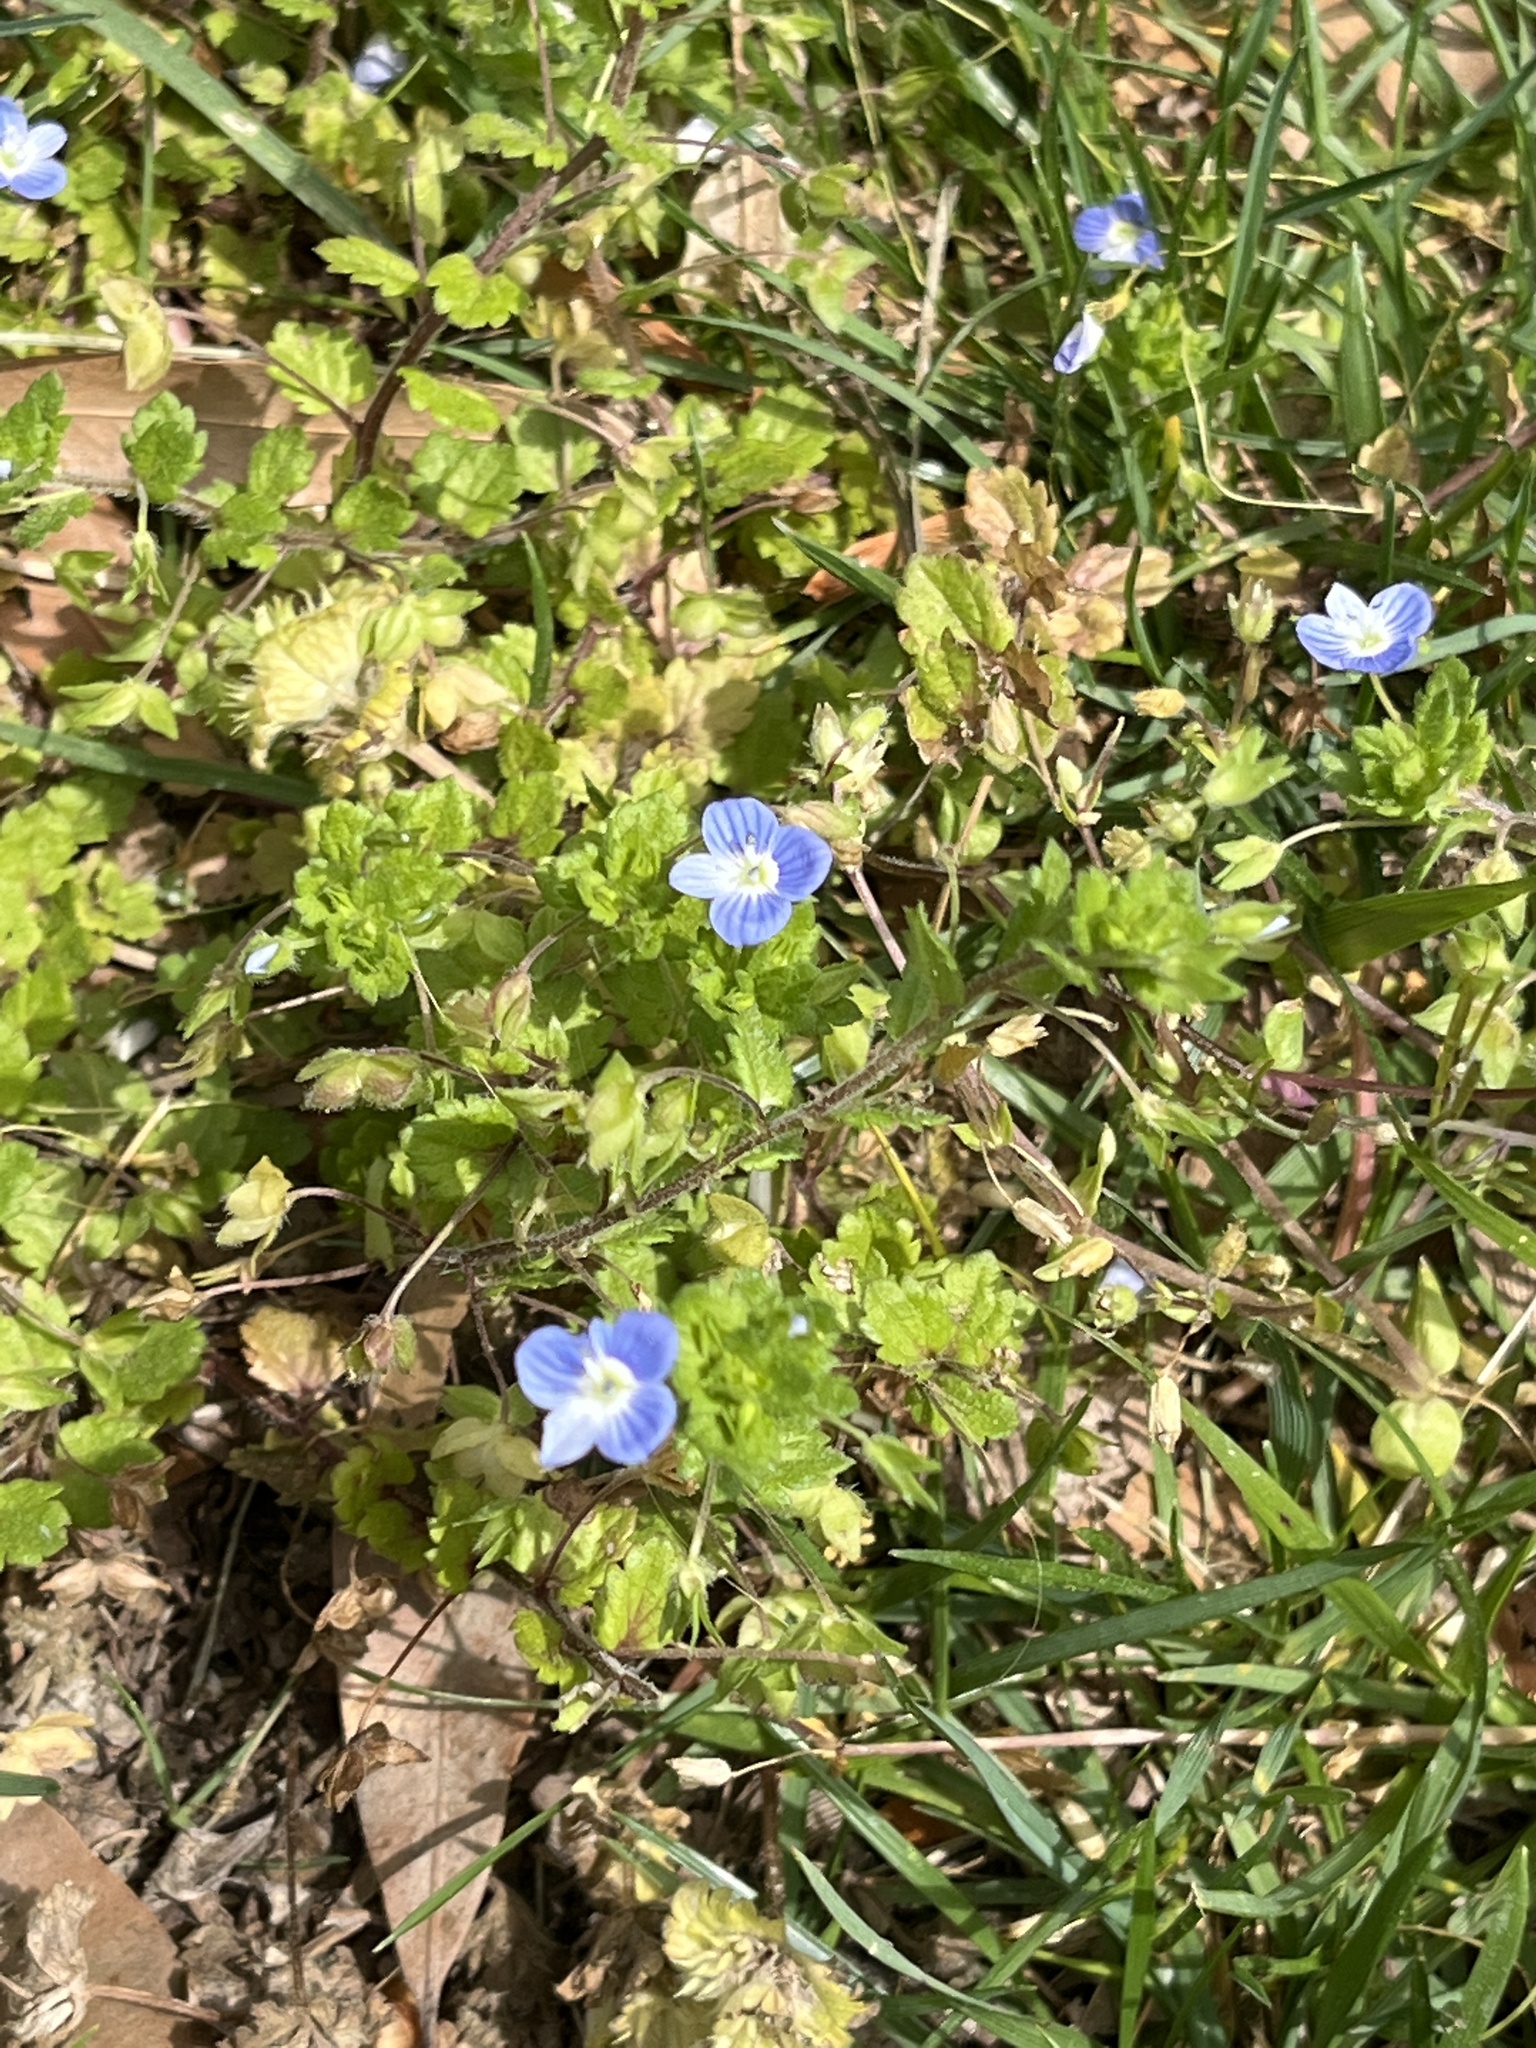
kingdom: Plantae
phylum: Tracheophyta
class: Magnoliopsida
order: Lamiales
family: Plantaginaceae
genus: Veronica
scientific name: Veronica persica
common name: Common field-speedwell
